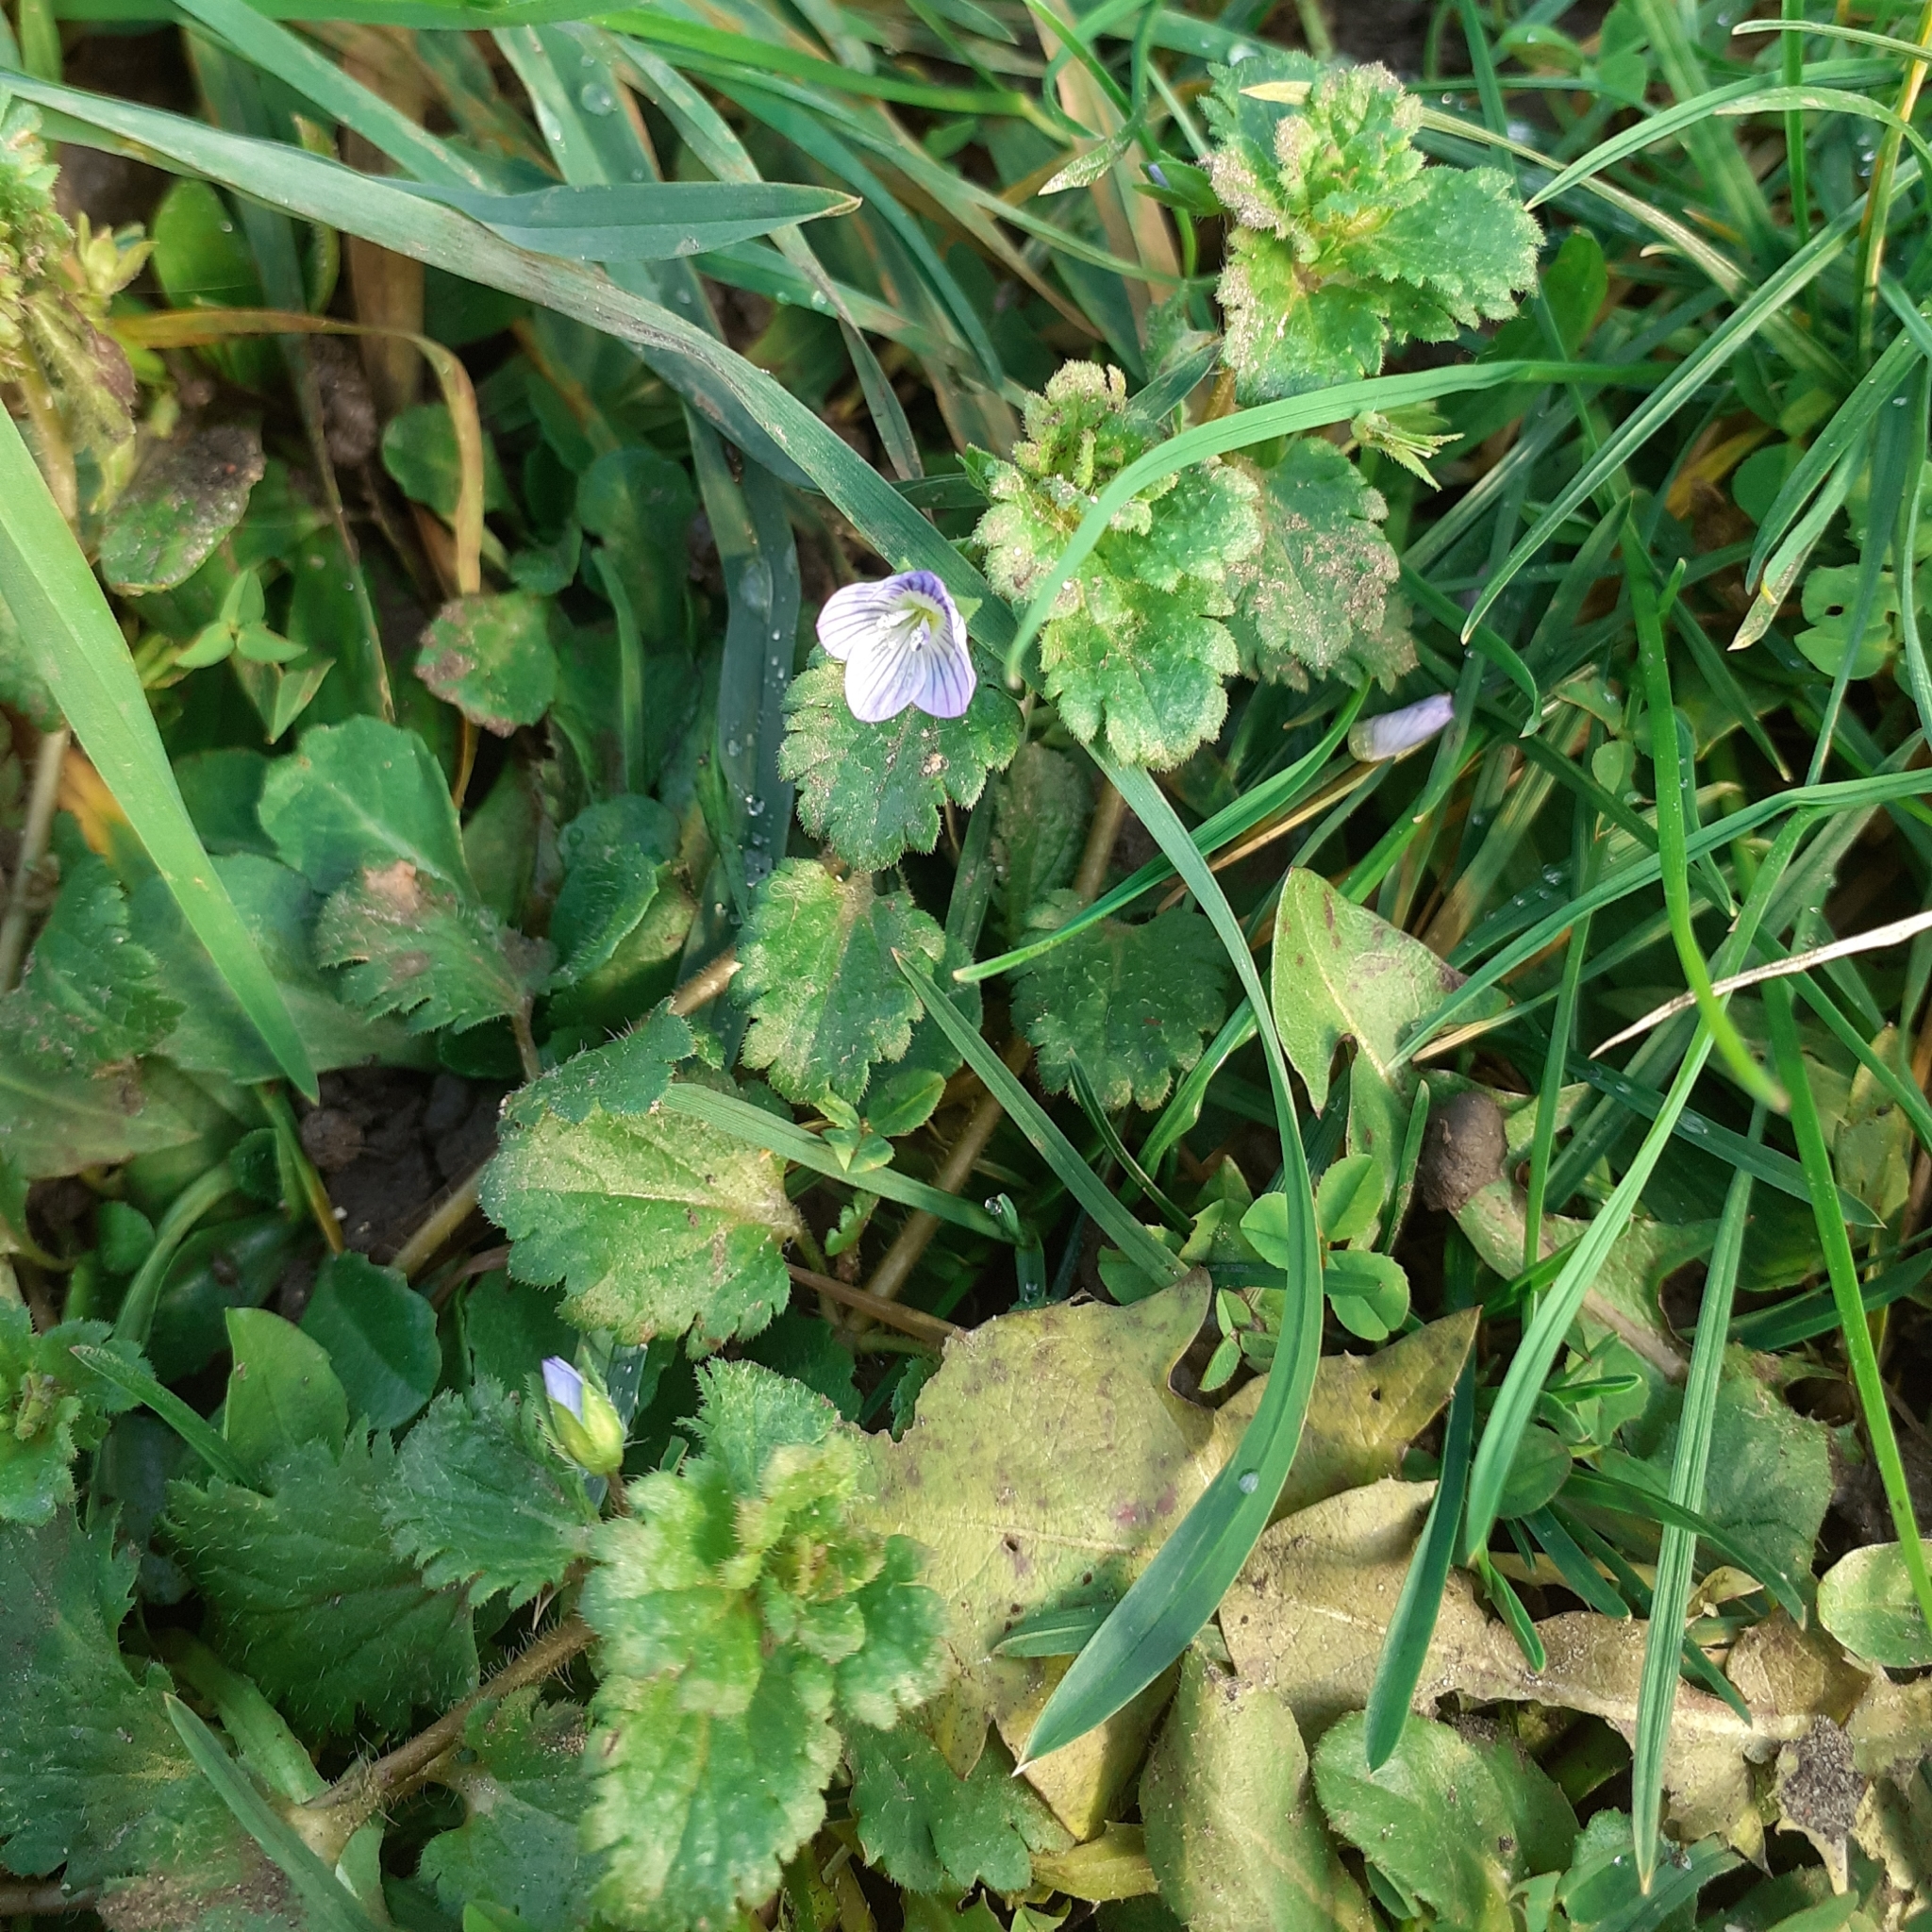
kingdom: Plantae
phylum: Tracheophyta
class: Magnoliopsida
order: Lamiales
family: Plantaginaceae
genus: Veronica
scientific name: Veronica persica
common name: Common field-speedwell
